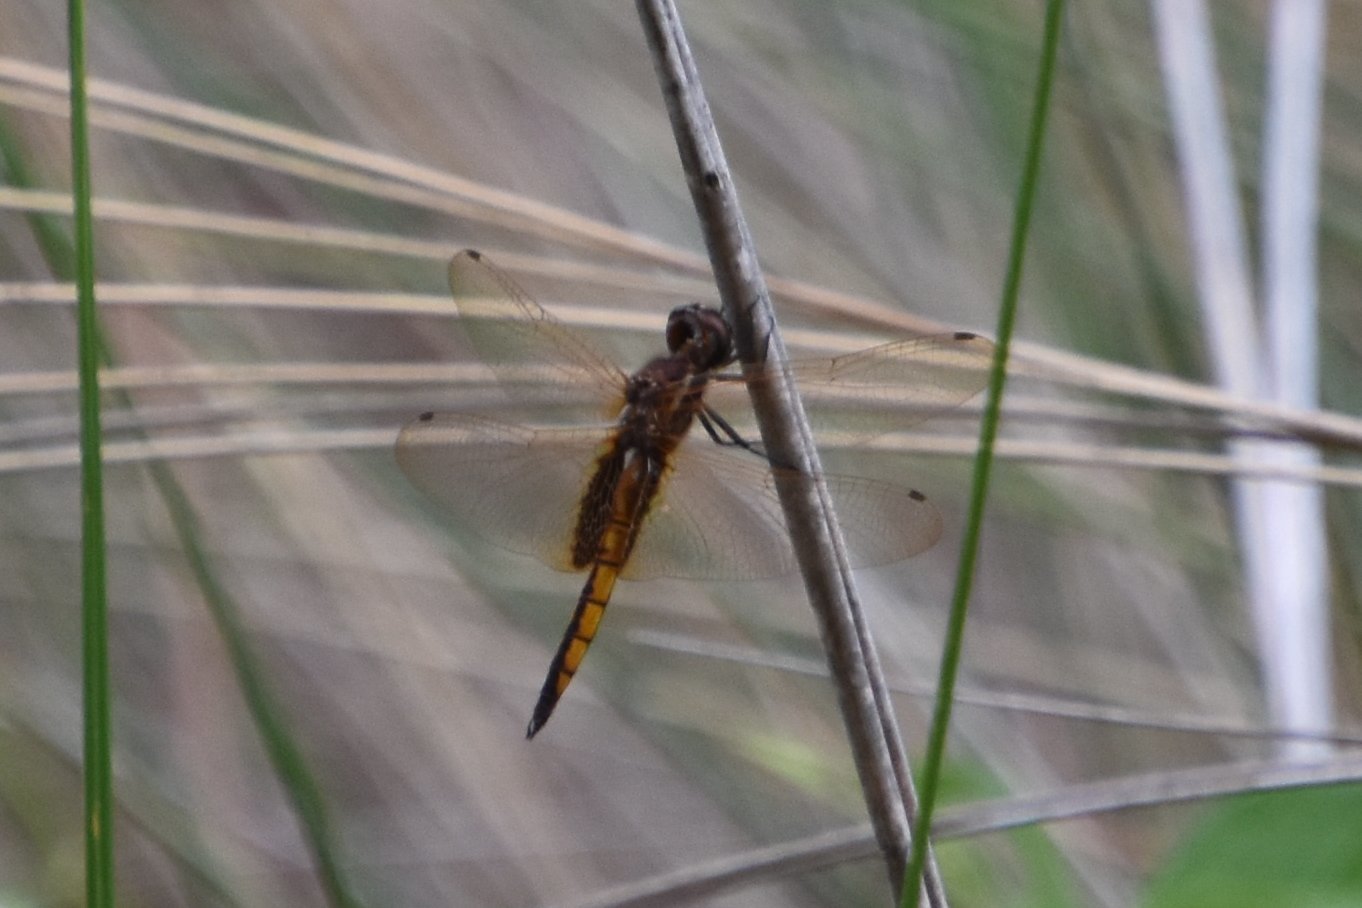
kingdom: Animalia
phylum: Arthropoda
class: Insecta
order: Odonata
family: Libellulidae
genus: Miathyria
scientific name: Miathyria marcella
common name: Hyacinth glider
